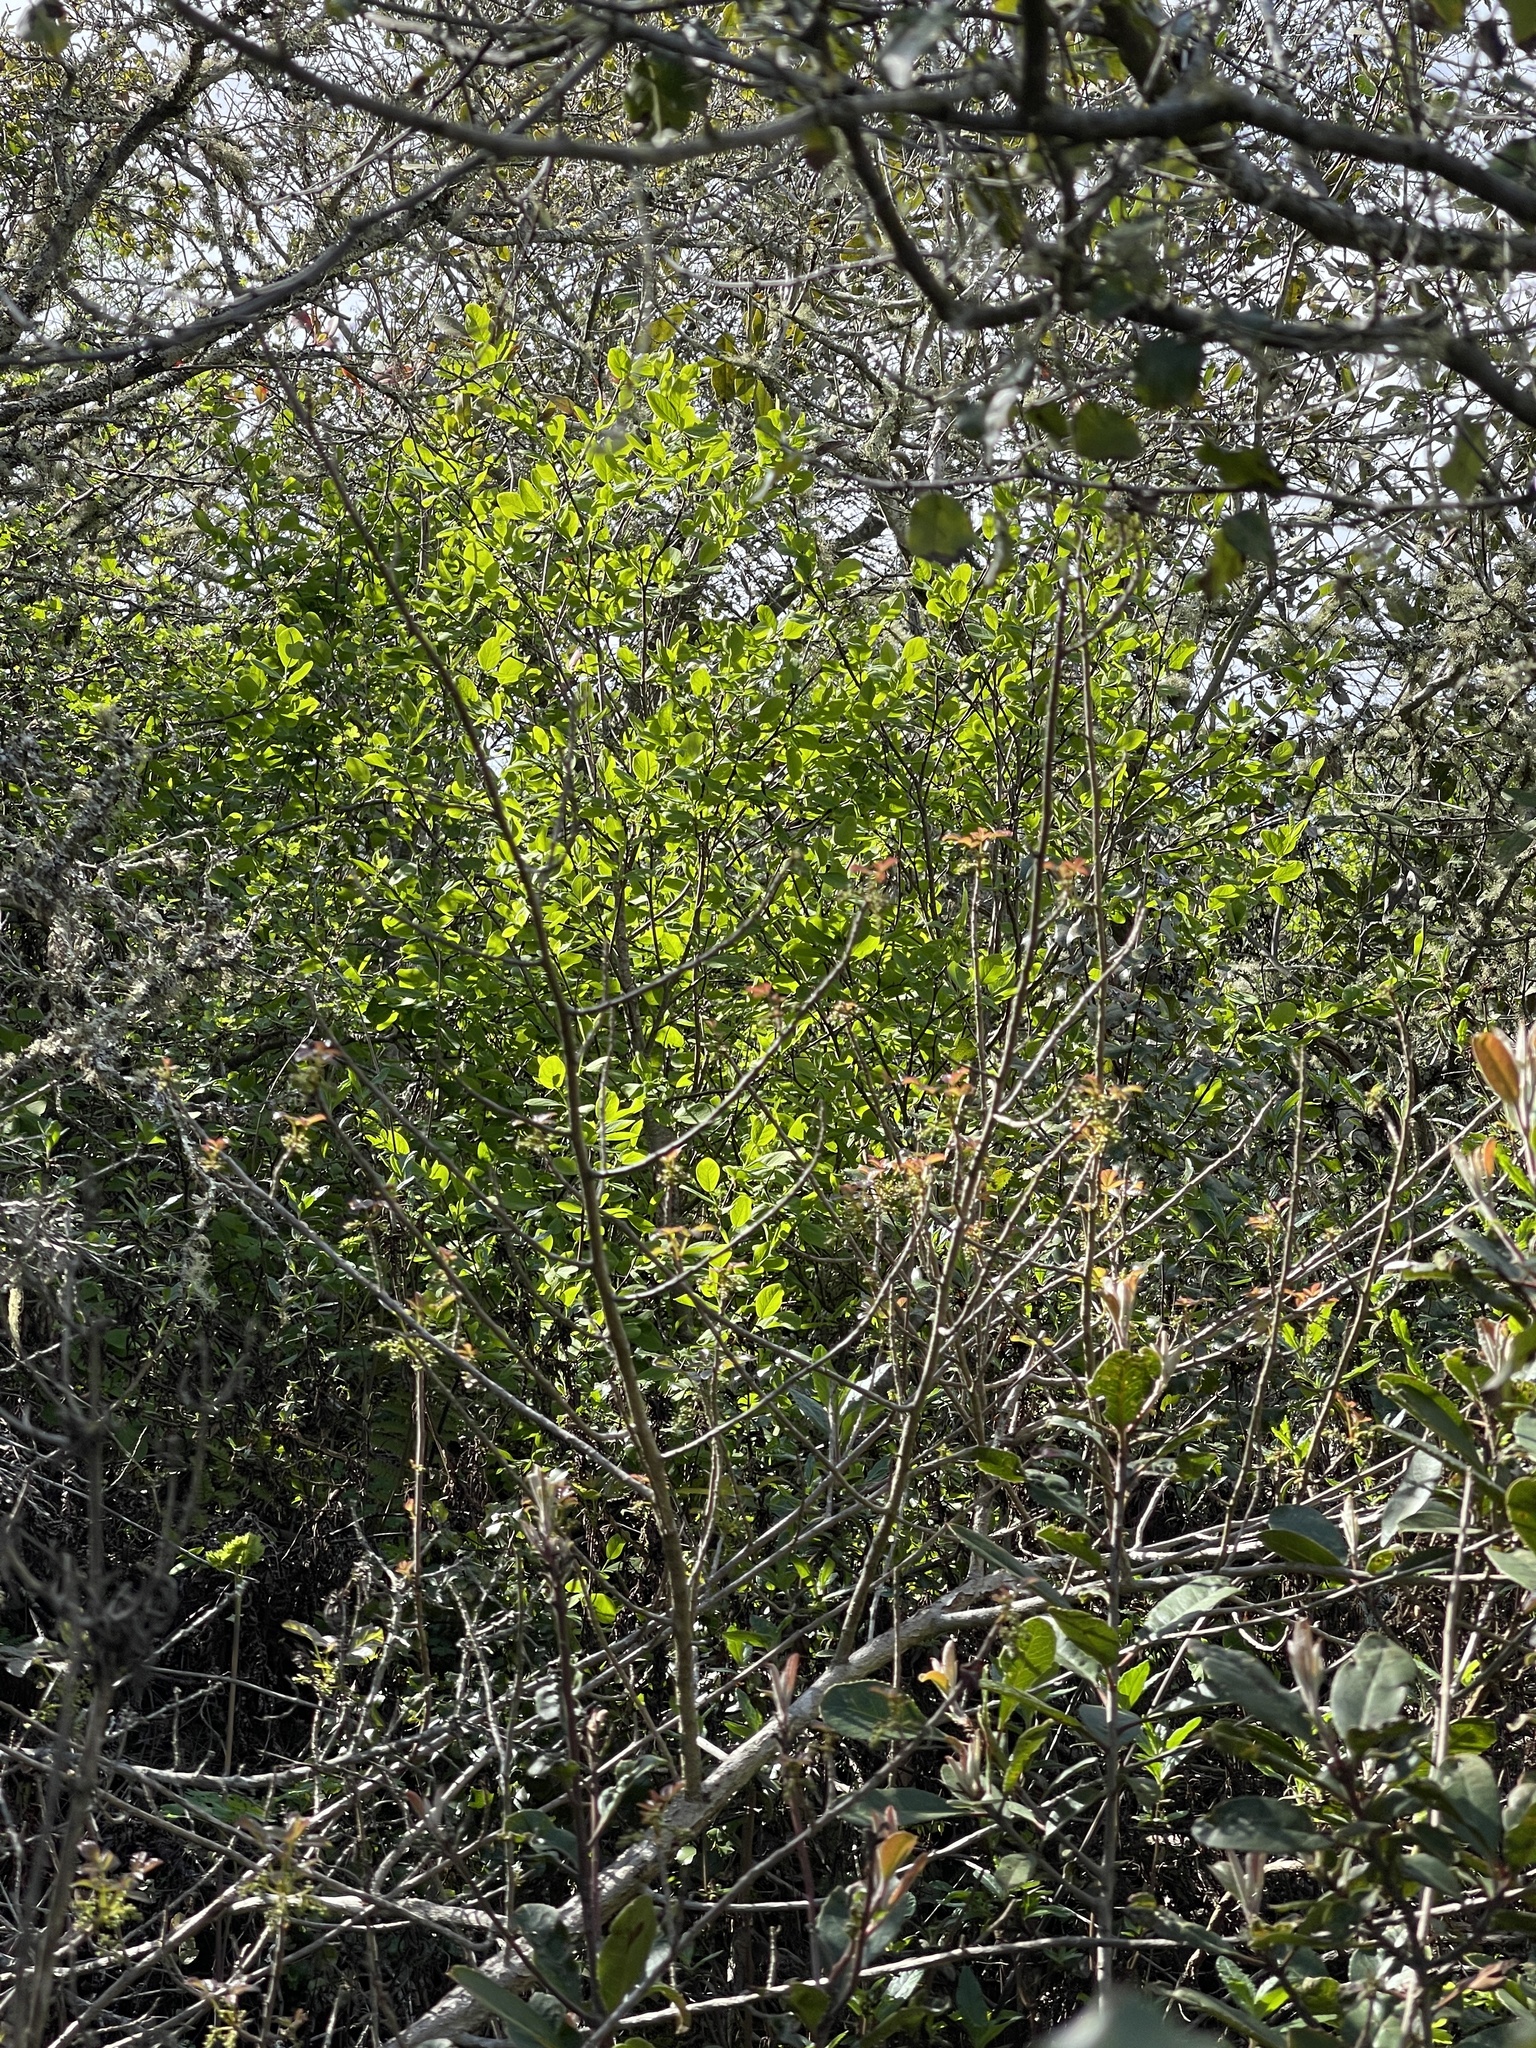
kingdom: Plantae
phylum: Tracheophyta
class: Magnoliopsida
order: Malvales
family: Thymelaeaceae
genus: Dirca
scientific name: Dirca occidentalis
